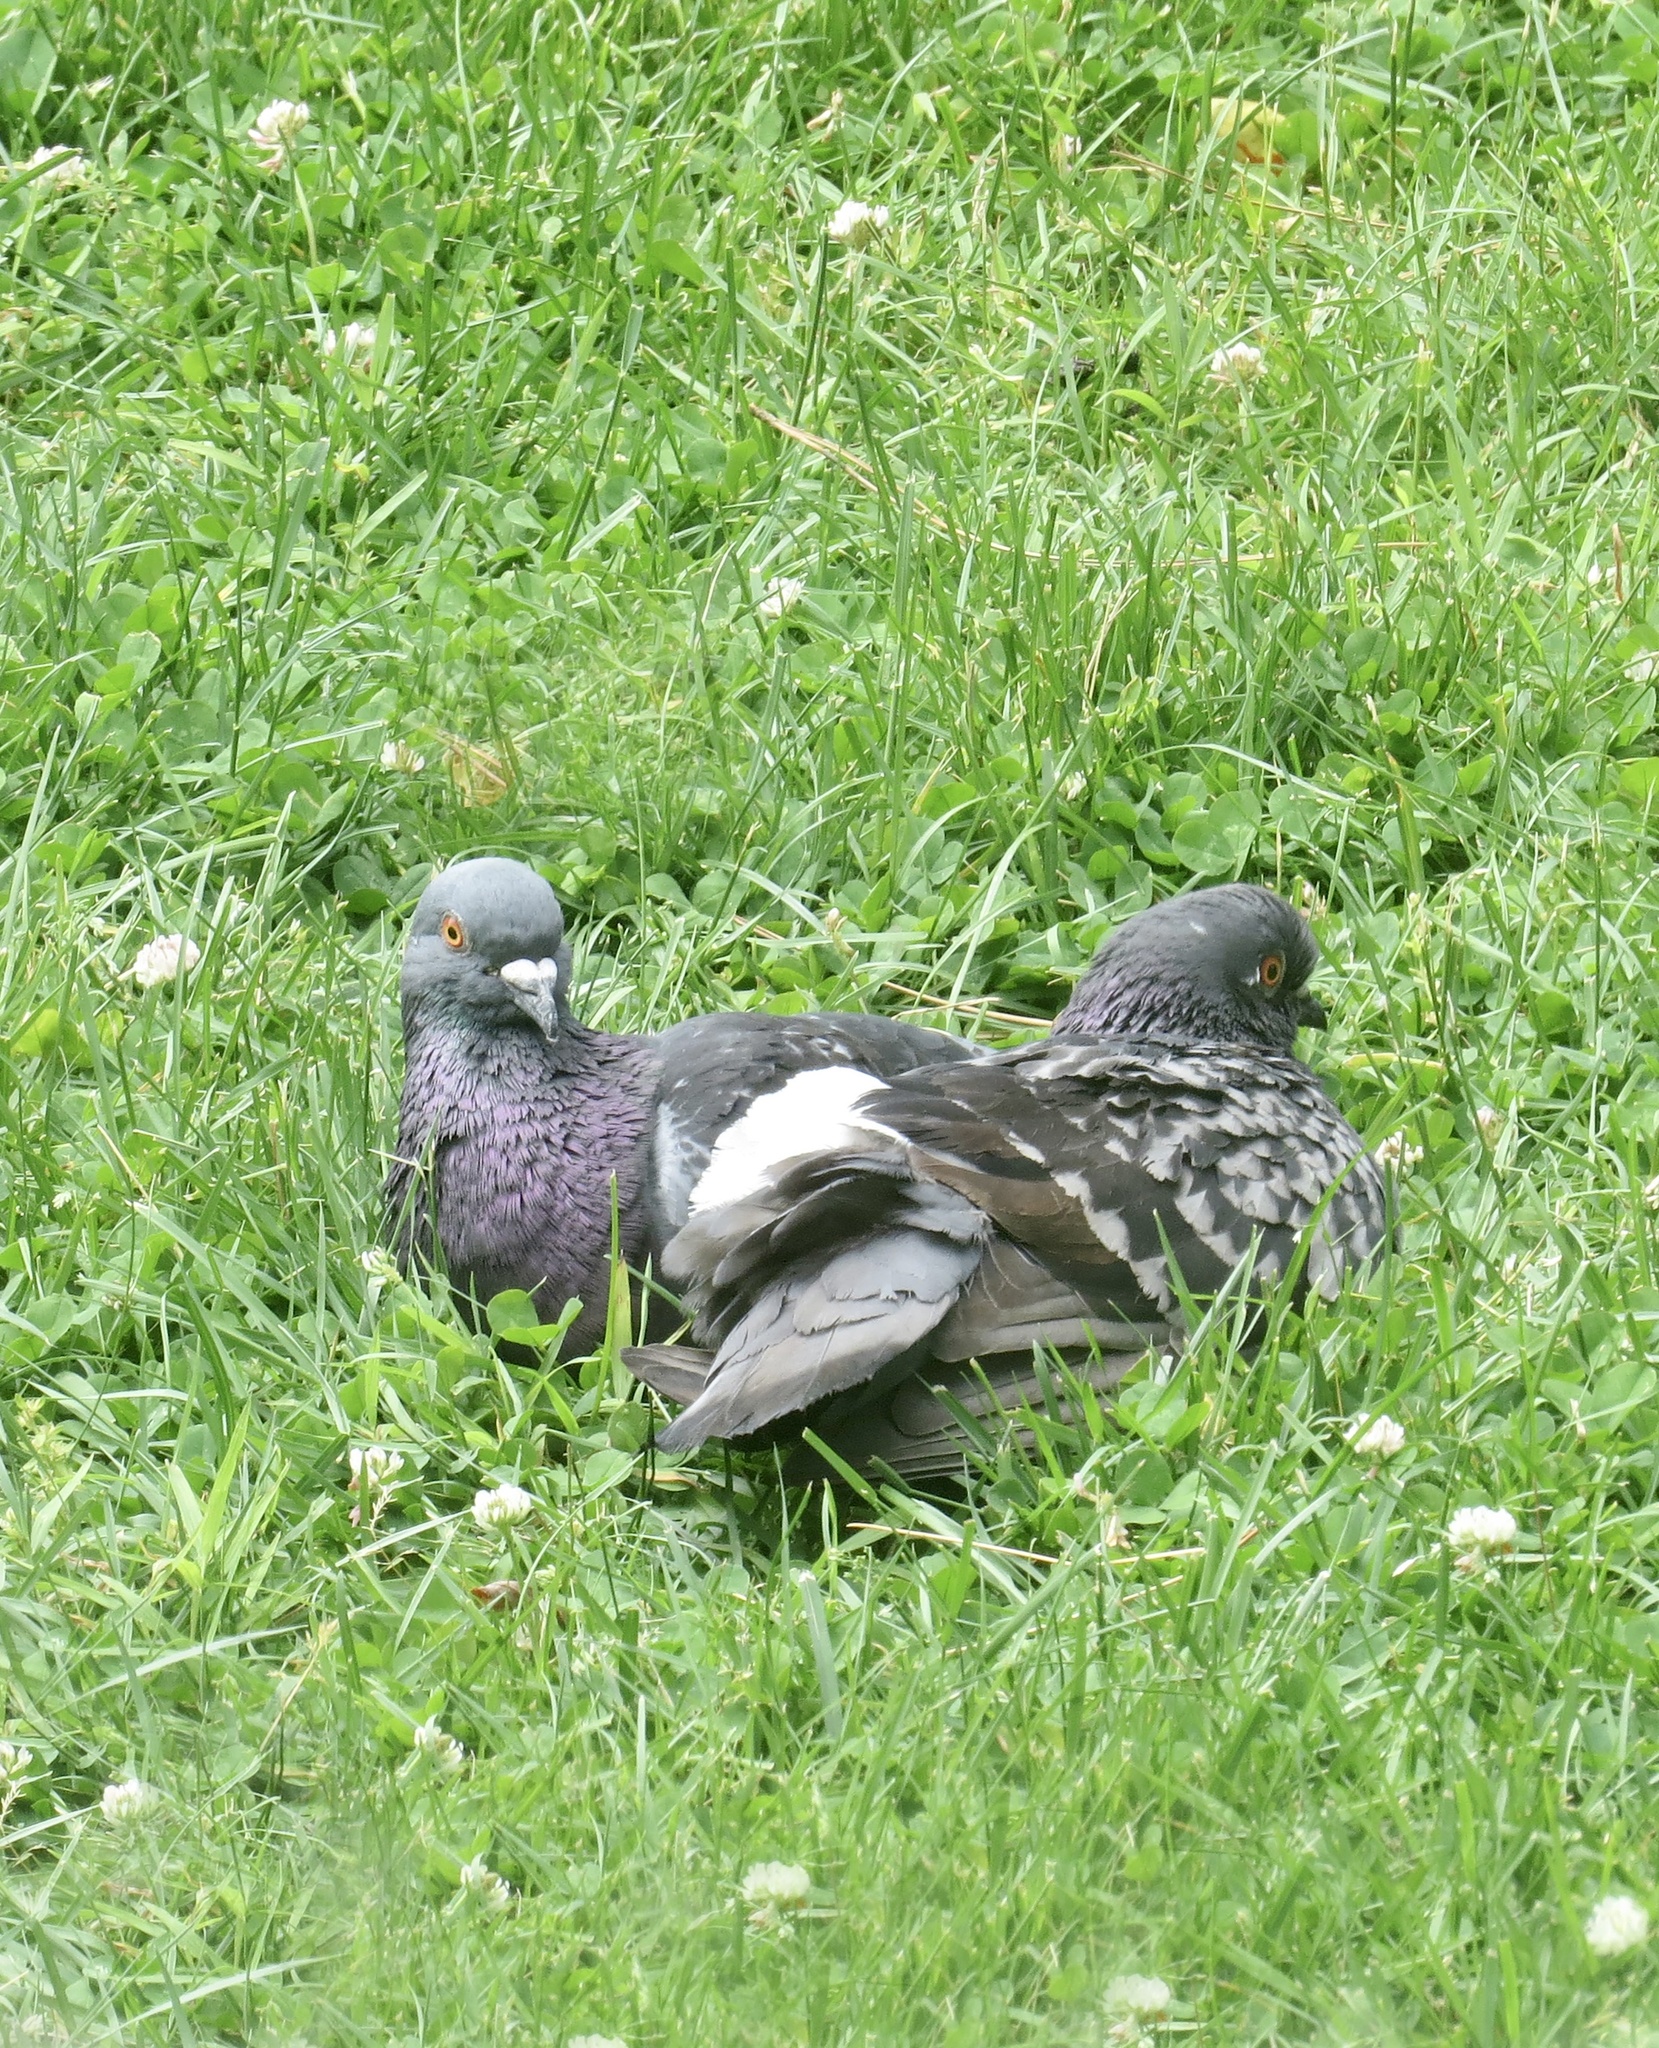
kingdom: Animalia
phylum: Chordata
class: Aves
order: Columbiformes
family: Columbidae
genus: Columba
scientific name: Columba livia
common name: Rock pigeon
